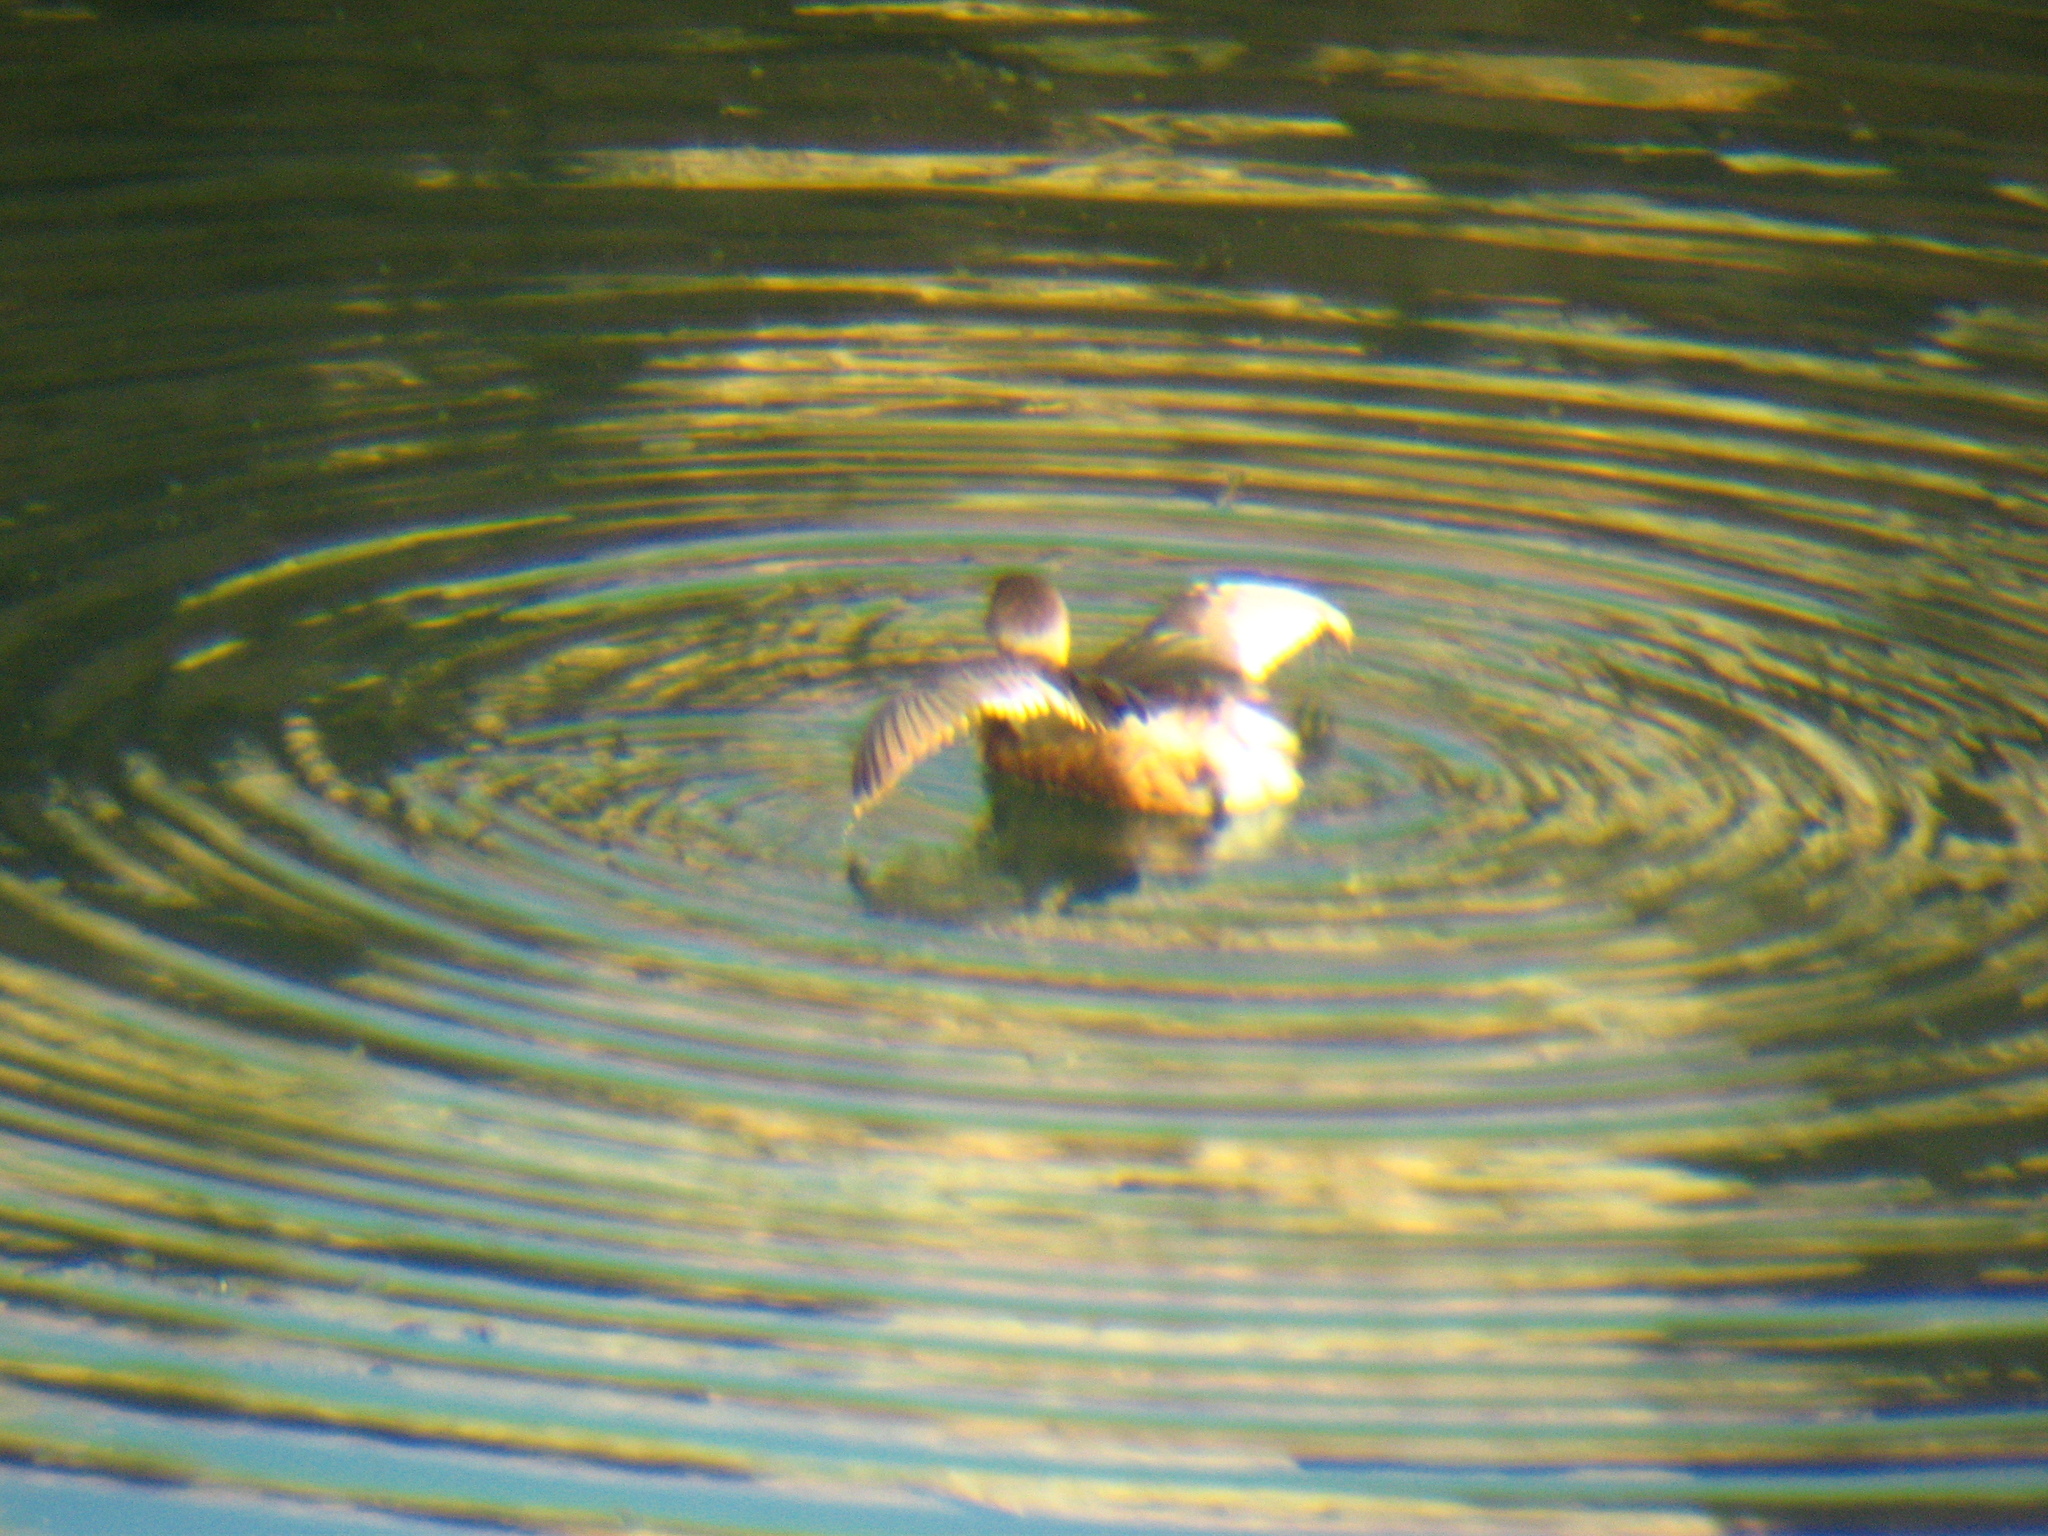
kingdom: Animalia
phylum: Chordata
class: Aves
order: Podicipediformes
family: Podicipedidae
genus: Podilymbus
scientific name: Podilymbus podiceps
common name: Pied-billed grebe
